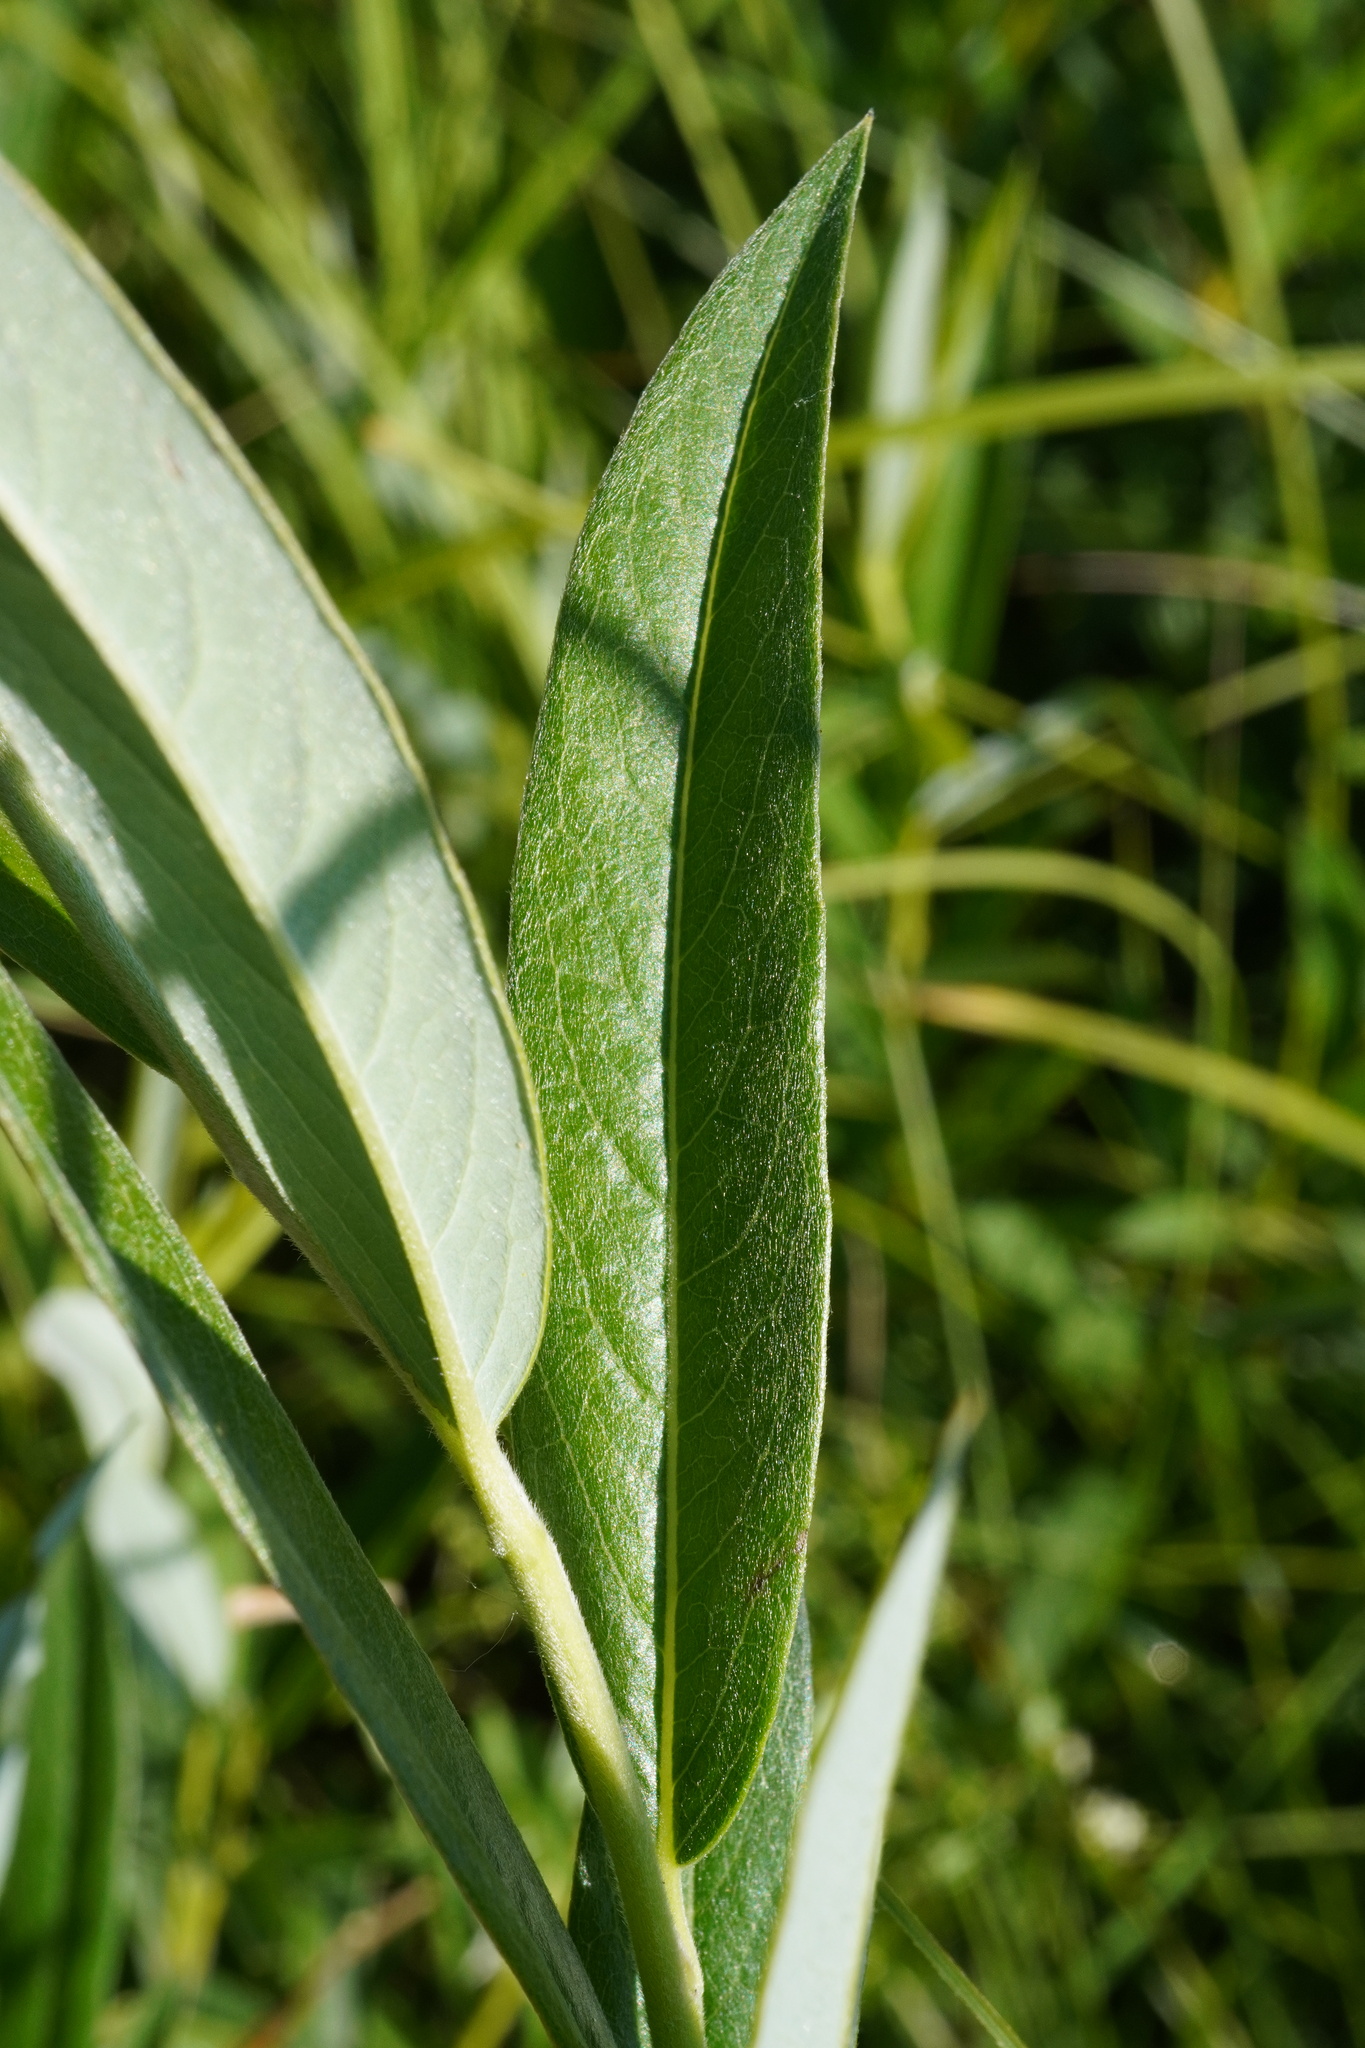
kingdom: Plantae
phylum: Tracheophyta
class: Magnoliopsida
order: Malpighiales
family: Salicaceae
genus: Salix
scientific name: Salix rosmarinifolia
